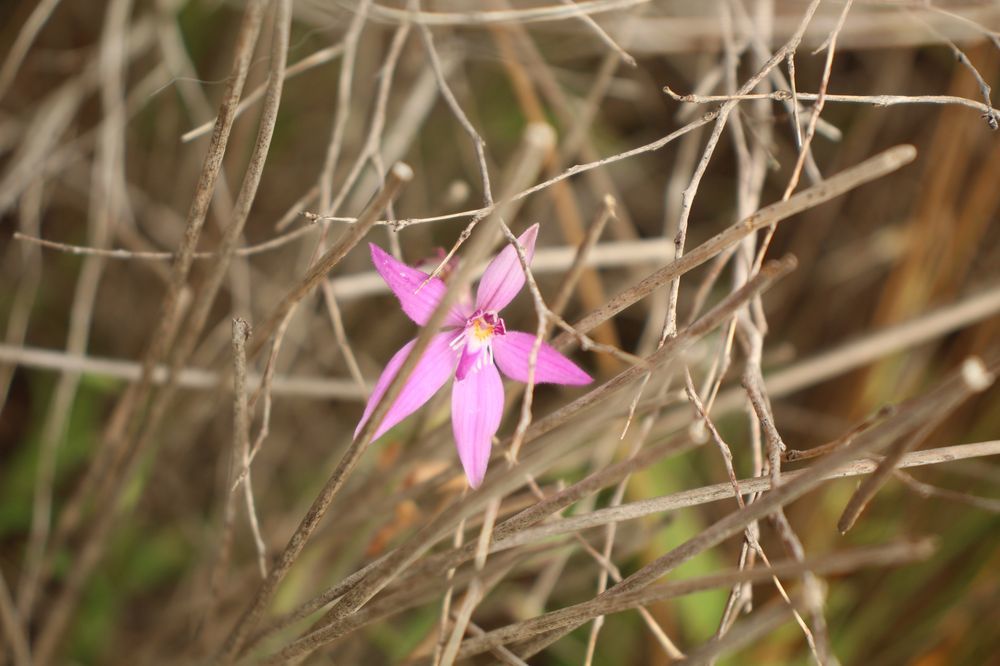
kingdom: Plantae
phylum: Tracheophyta
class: Liliopsida
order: Asparagales
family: Orchidaceae
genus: Caladenia
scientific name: Caladenia latifolia
